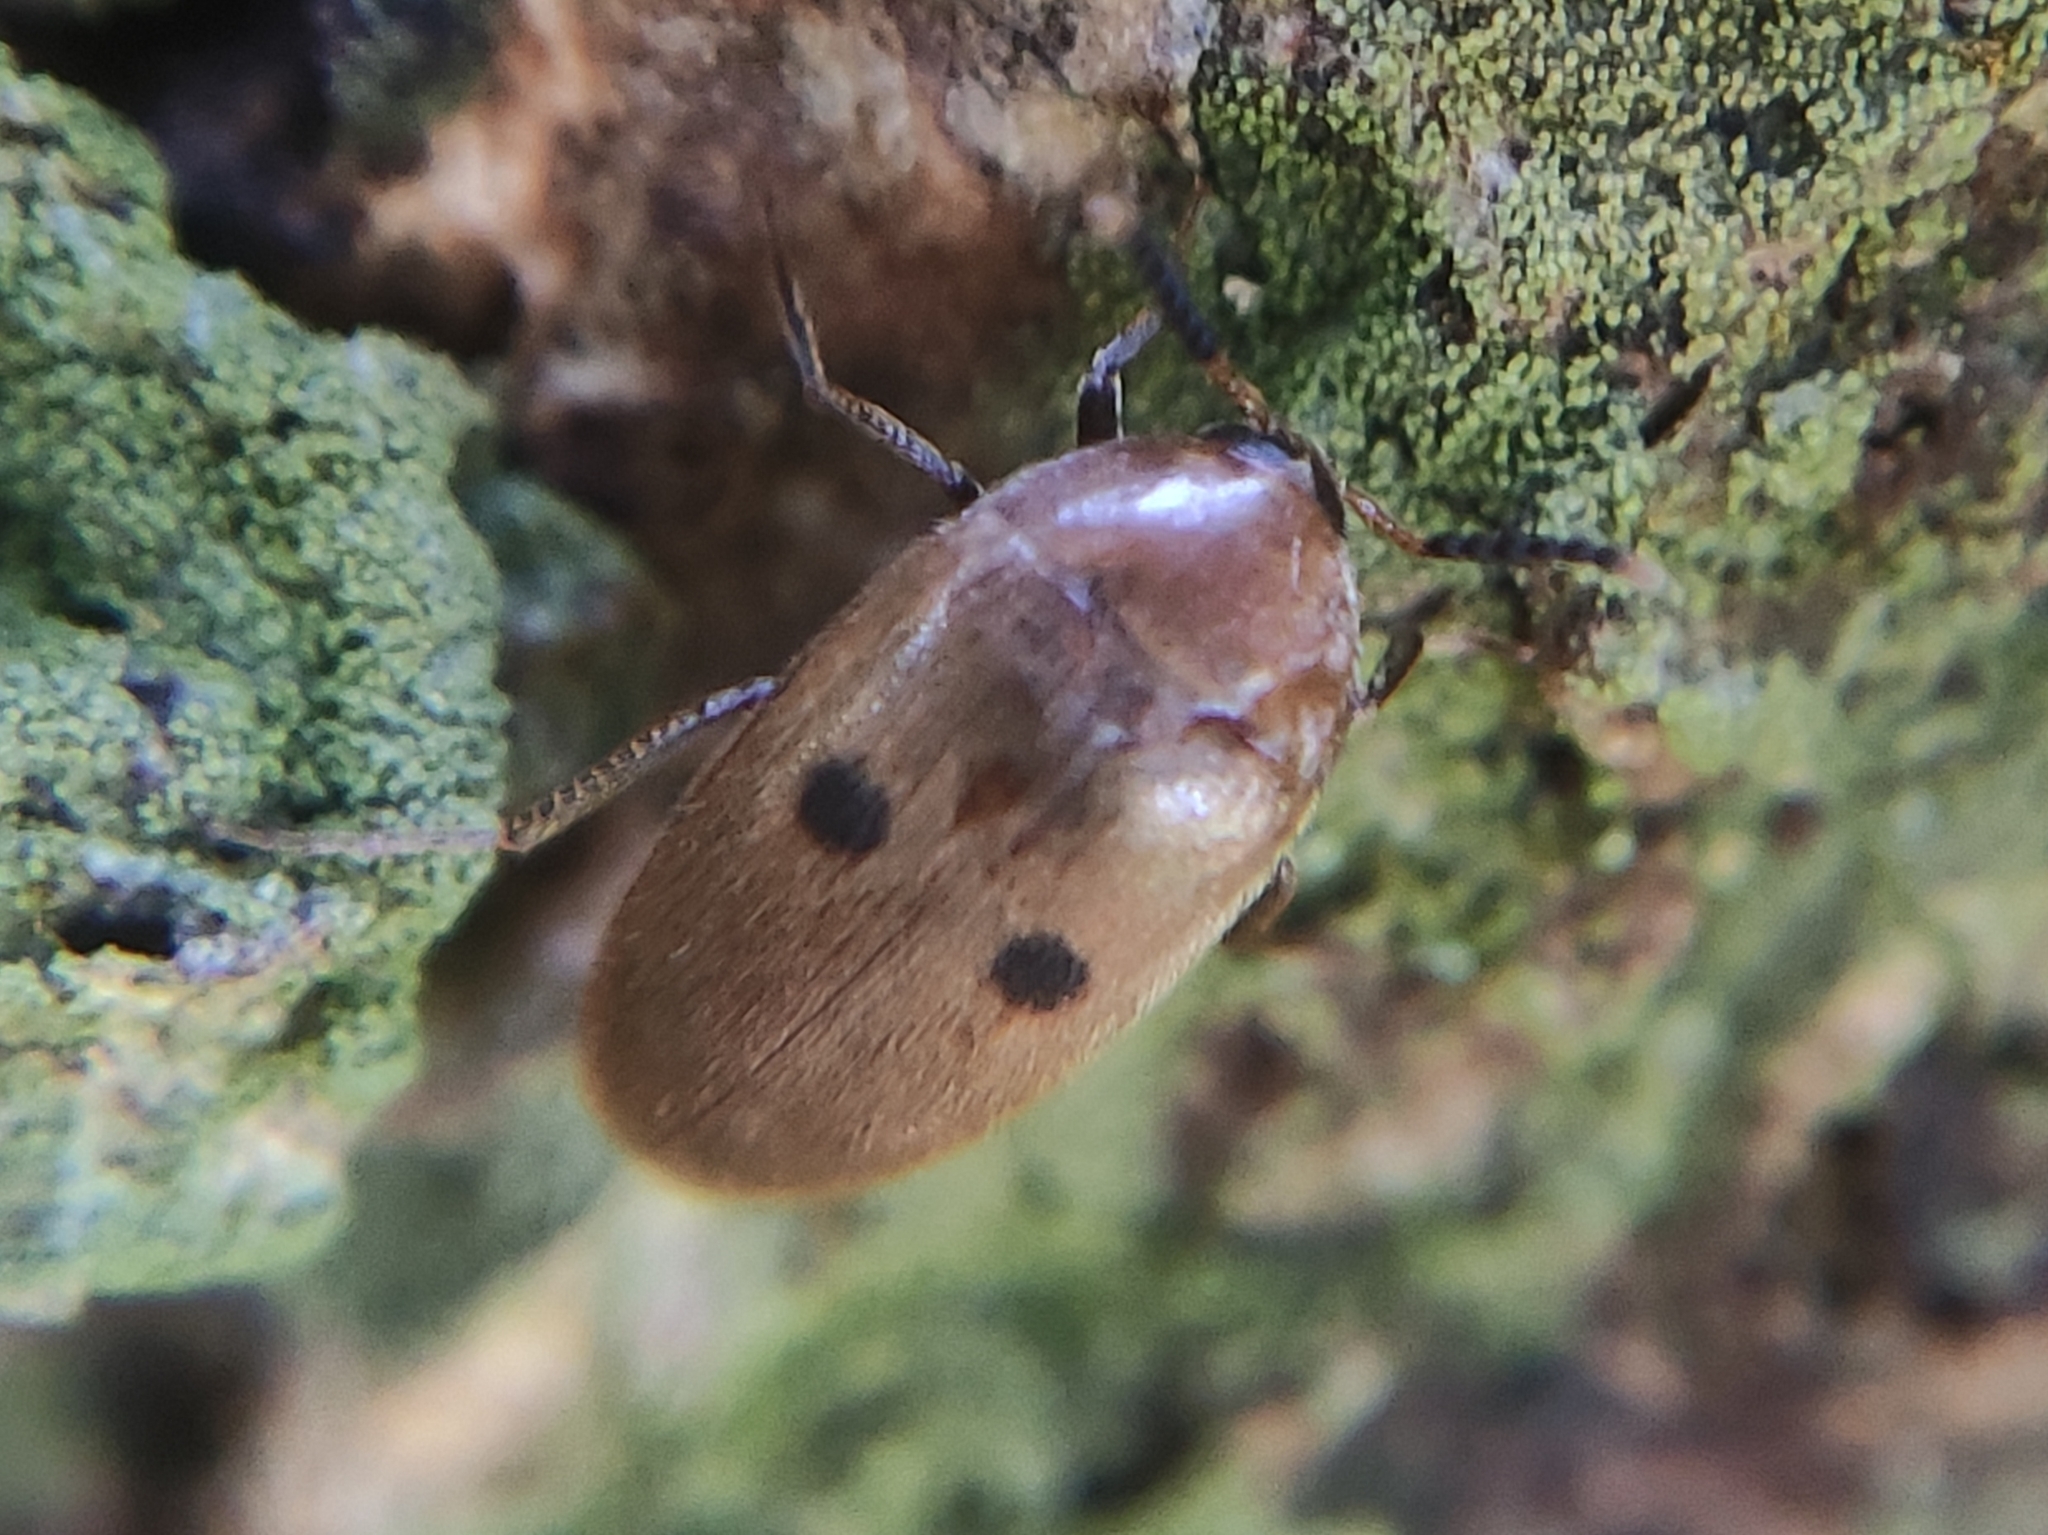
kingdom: Animalia
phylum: Arthropoda
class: Insecta
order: Coleoptera
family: Tetratomidae
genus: Eustrophopsis
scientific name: Eustrophopsis
